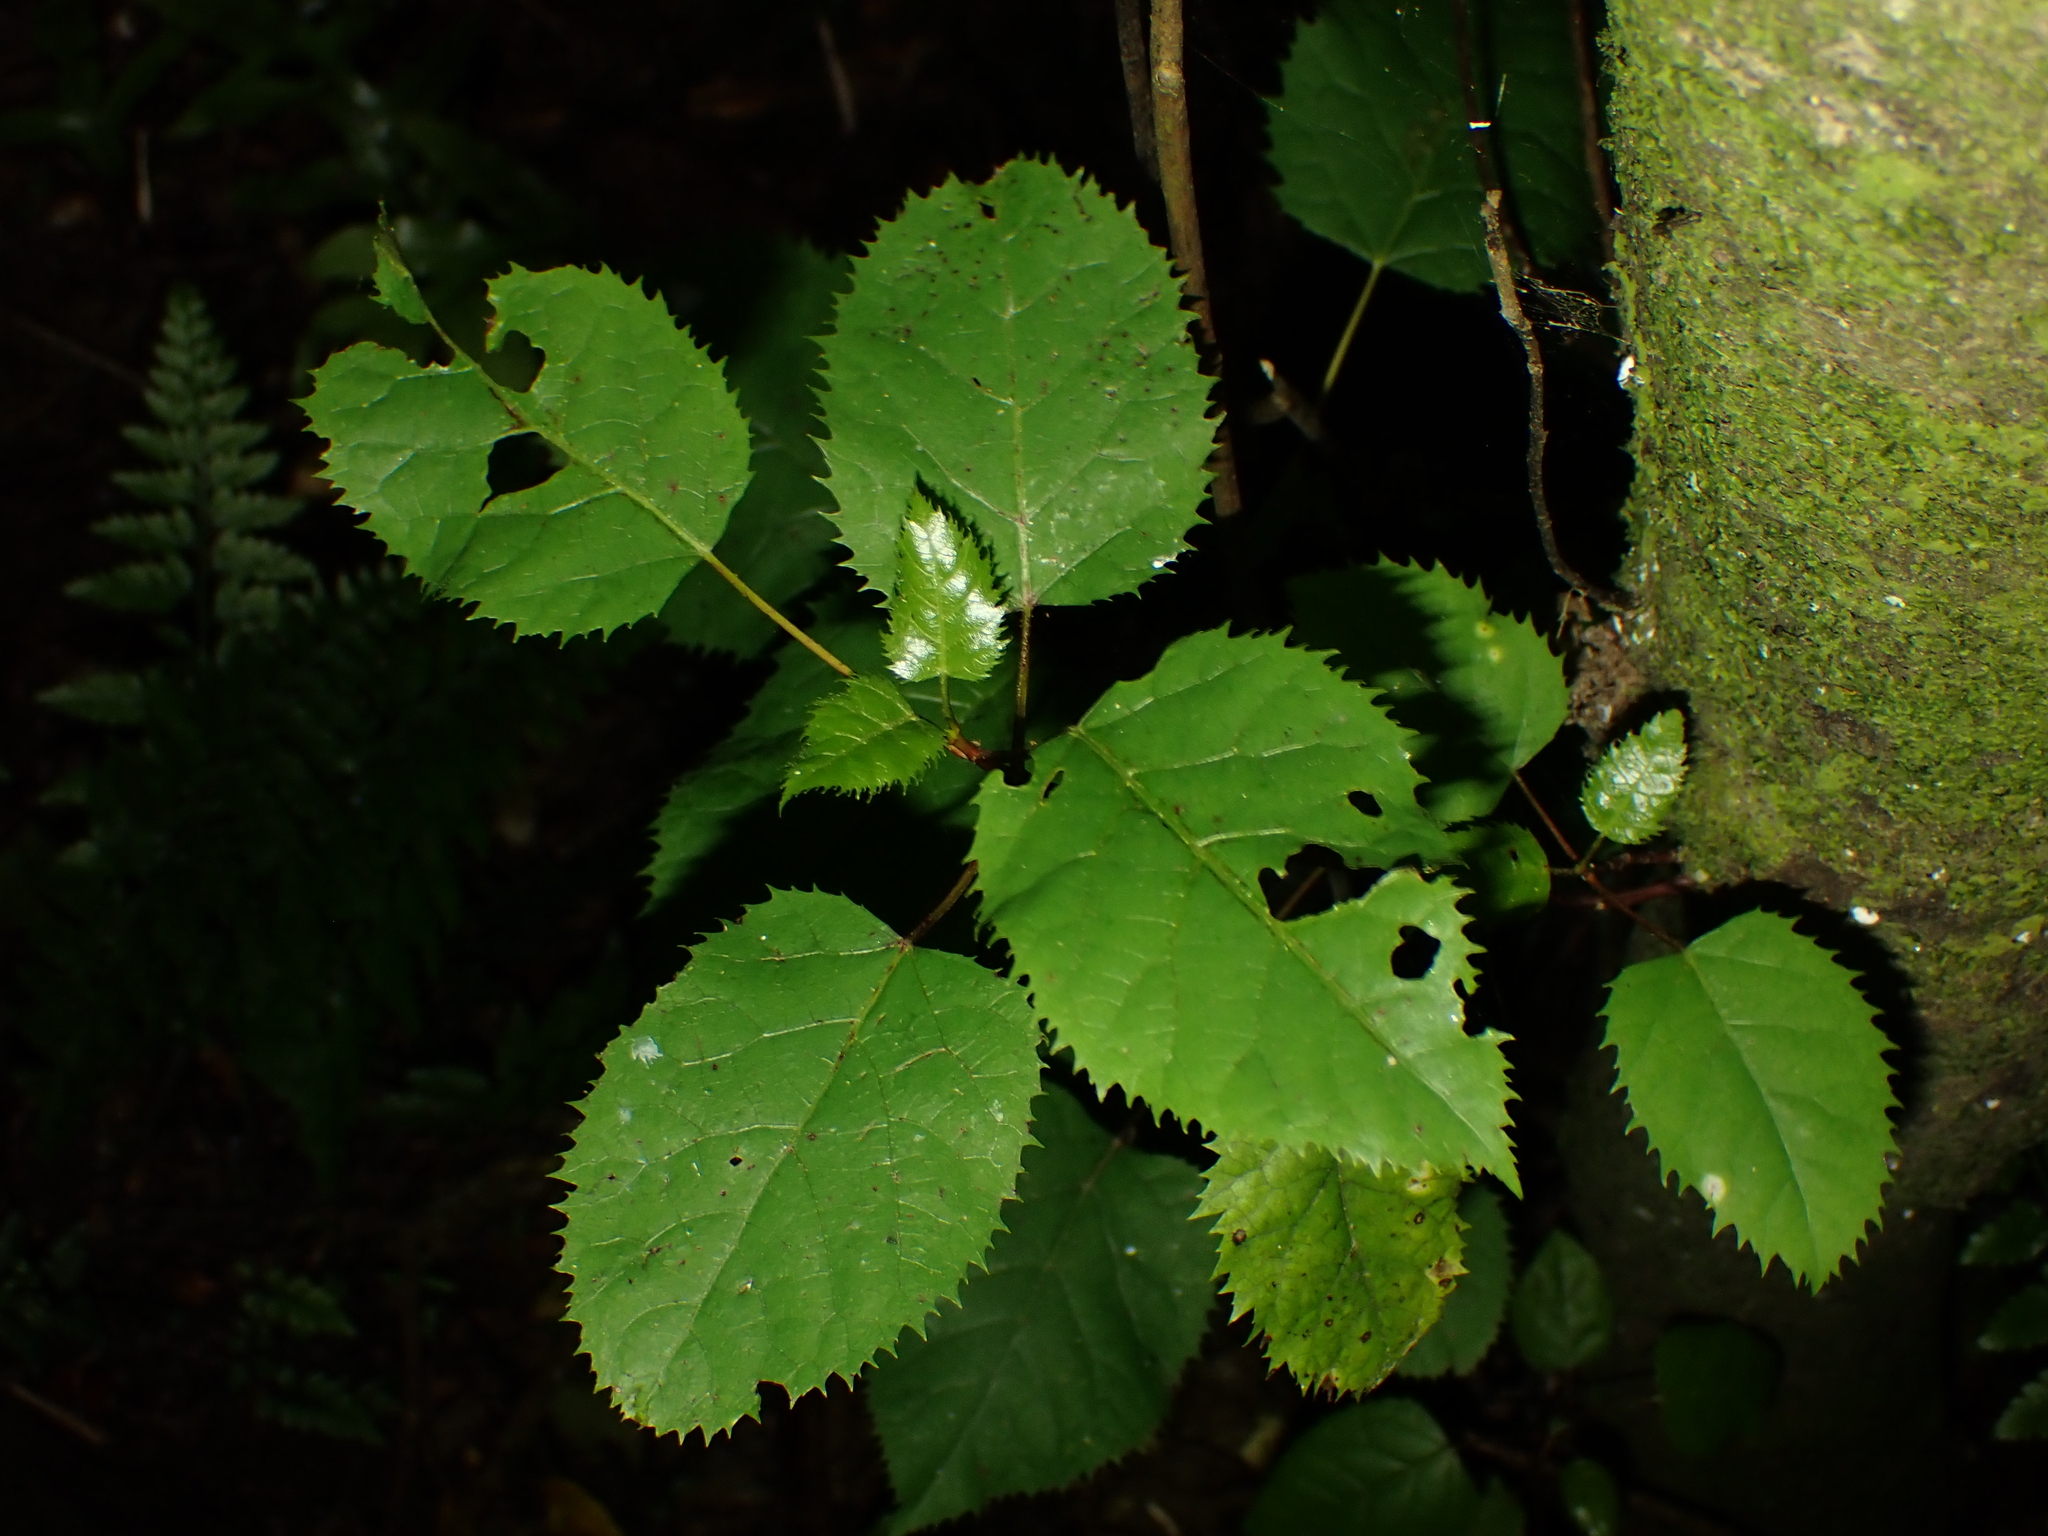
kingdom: Plantae
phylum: Tracheophyta
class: Magnoliopsida
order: Oxalidales
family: Elaeocarpaceae
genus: Aristotelia
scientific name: Aristotelia serrata
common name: New zealand wineberry
